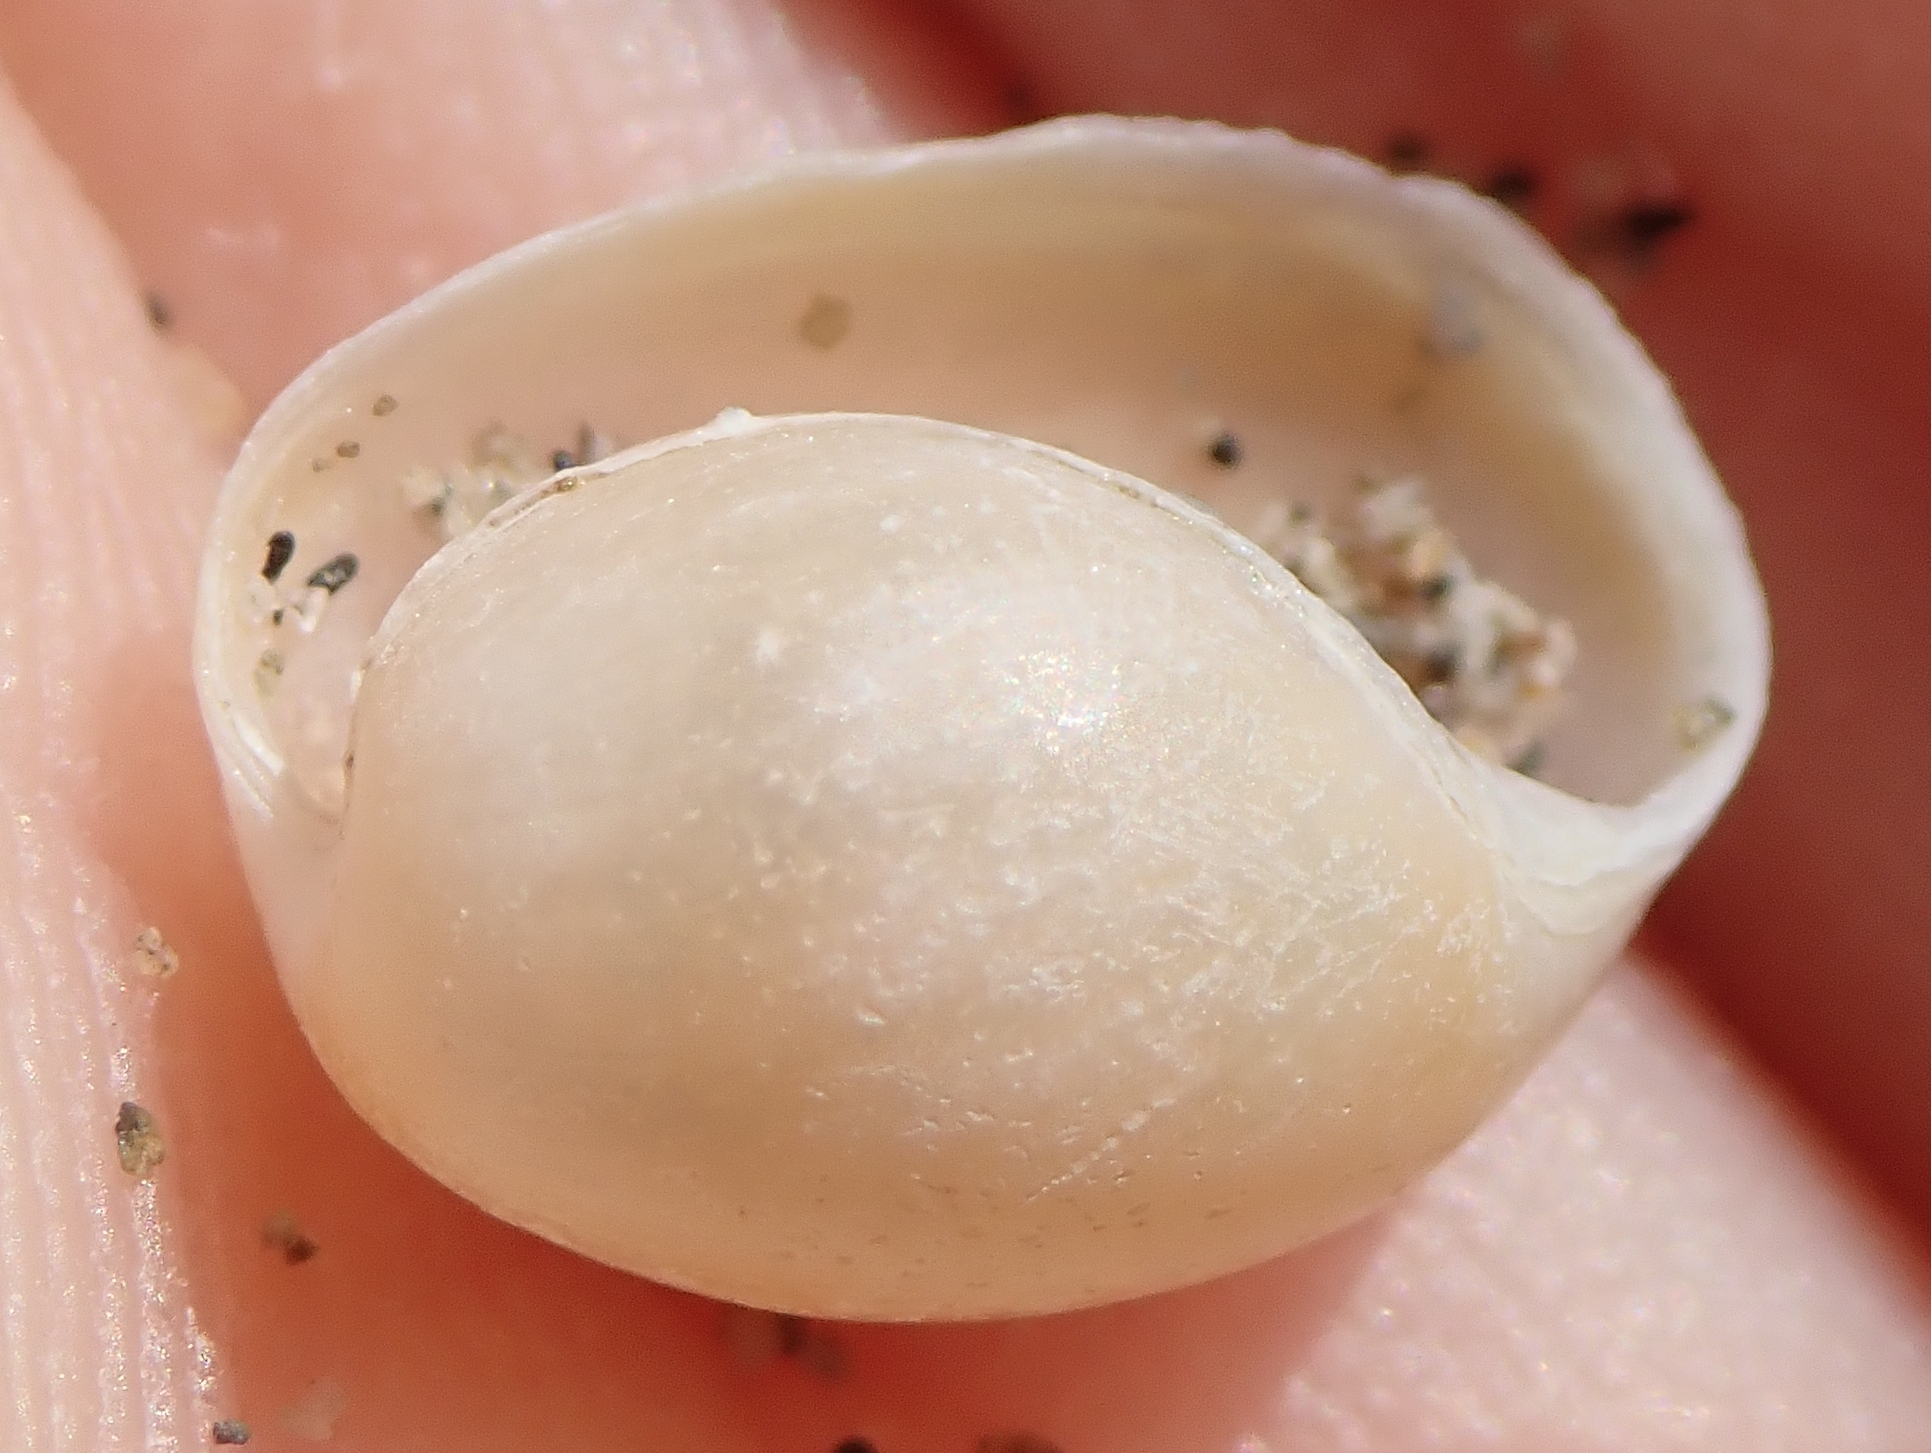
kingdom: Animalia
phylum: Mollusca
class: Gastropoda
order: Cephalaspidea
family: Haminoeidae
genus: Haloa
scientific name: Haloa japonica
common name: Japanese bubble snail
